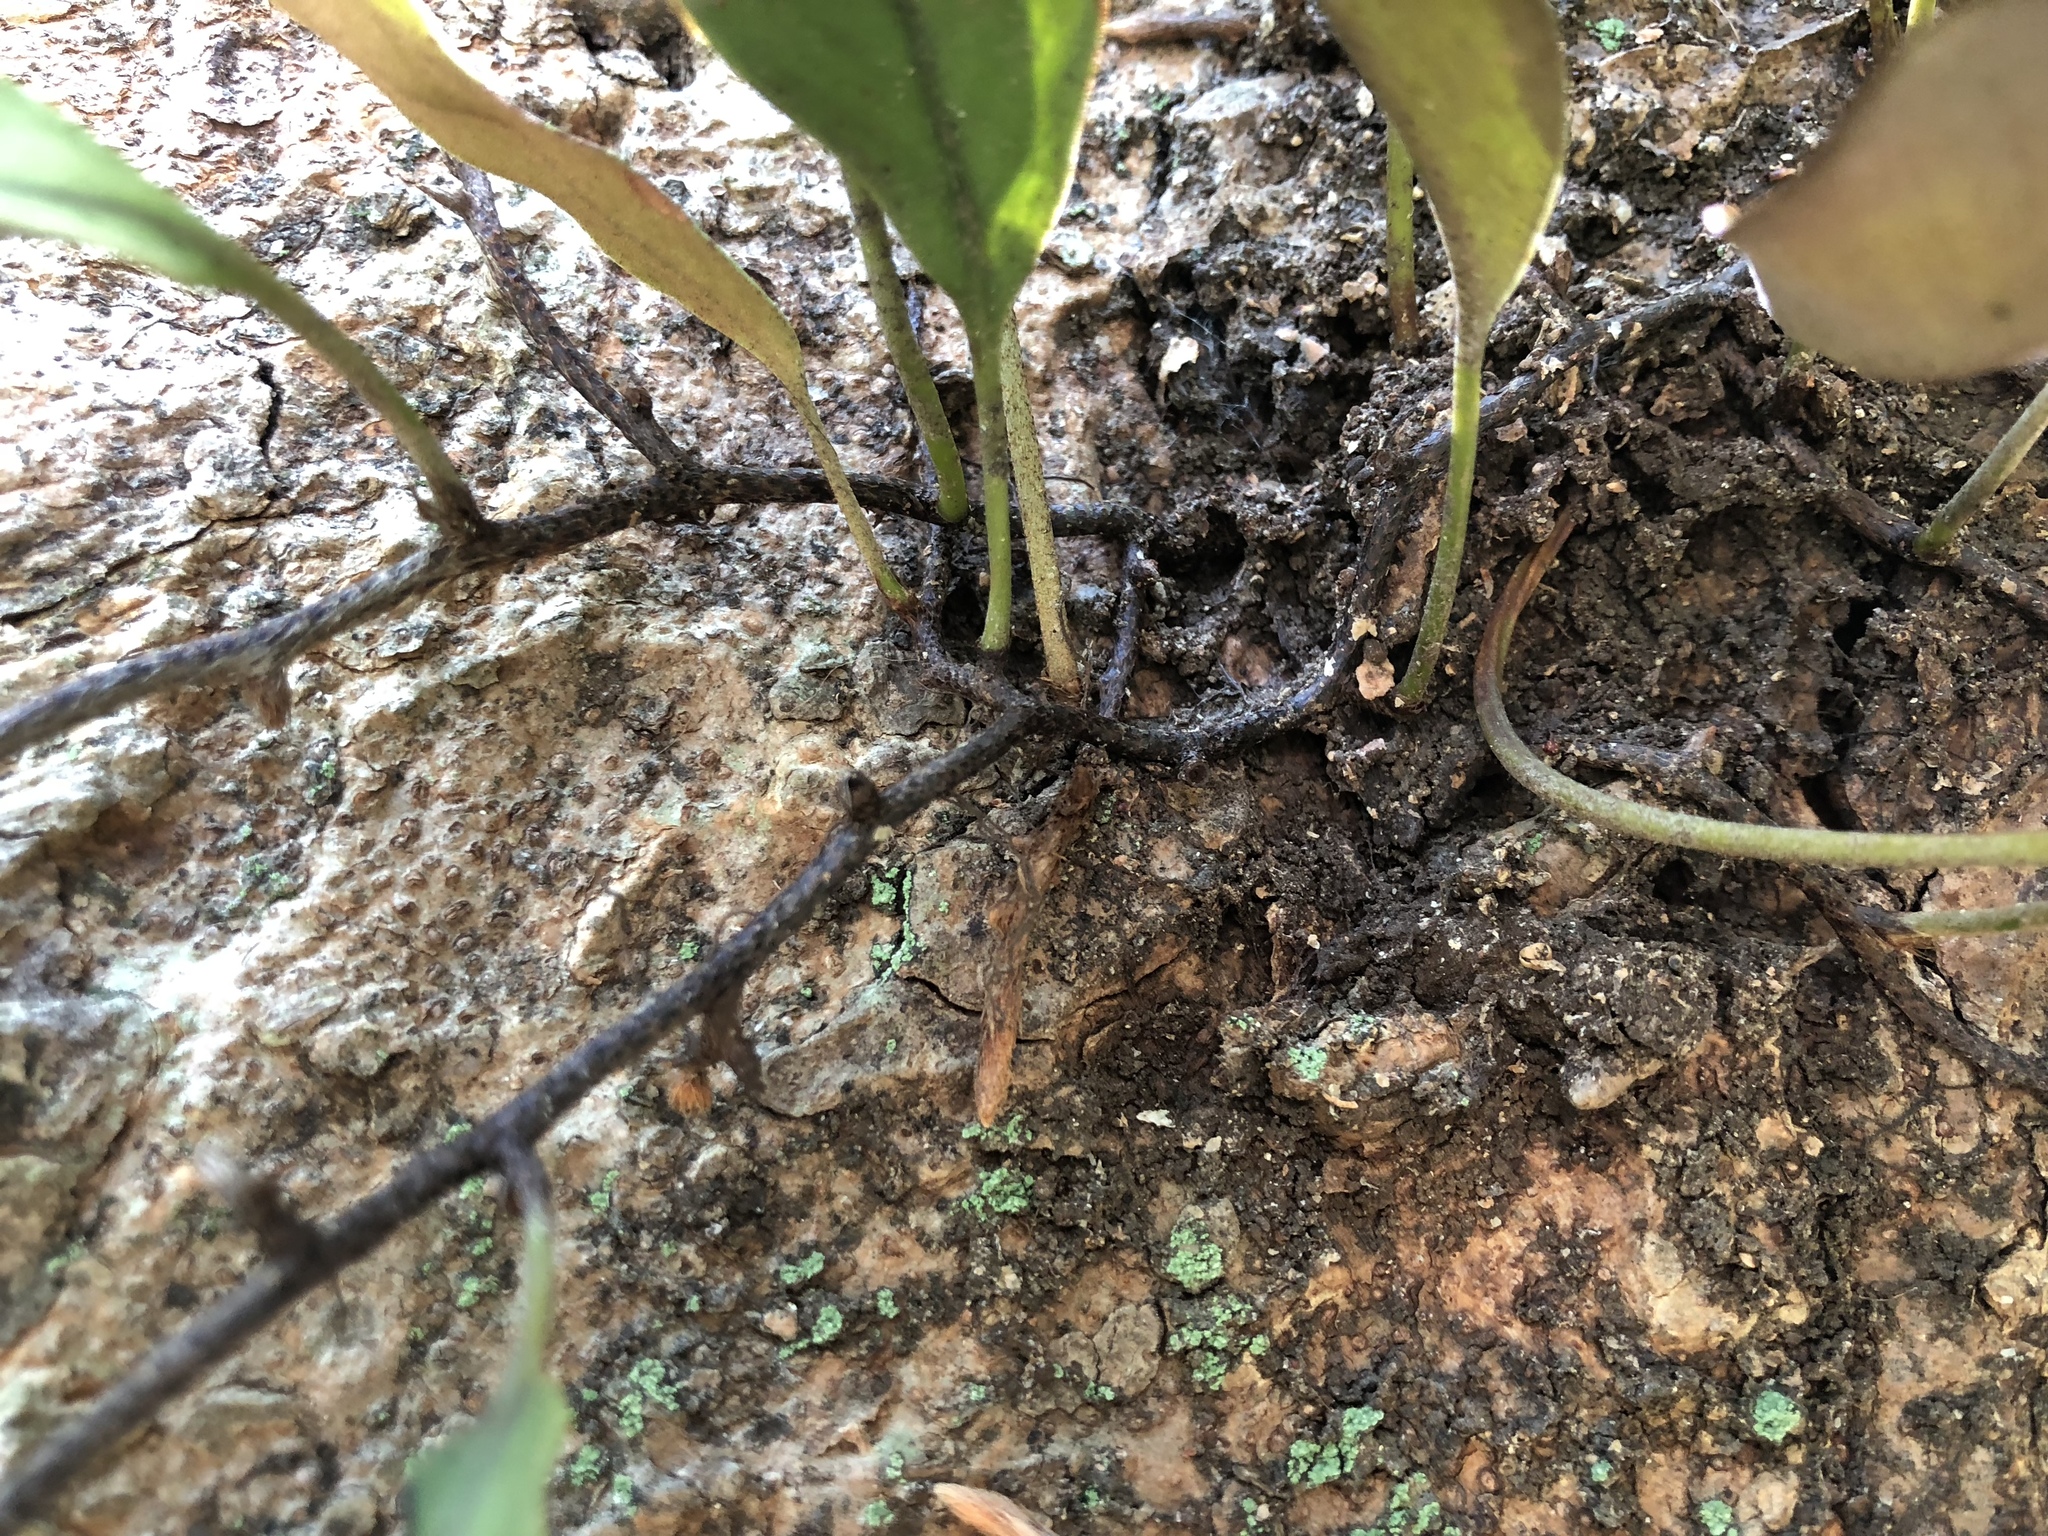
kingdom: Plantae
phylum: Tracheophyta
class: Polypodiopsida
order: Polypodiales
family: Polypodiaceae
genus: Pyrrosia
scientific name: Pyrrosia lingua
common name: Felt fern
